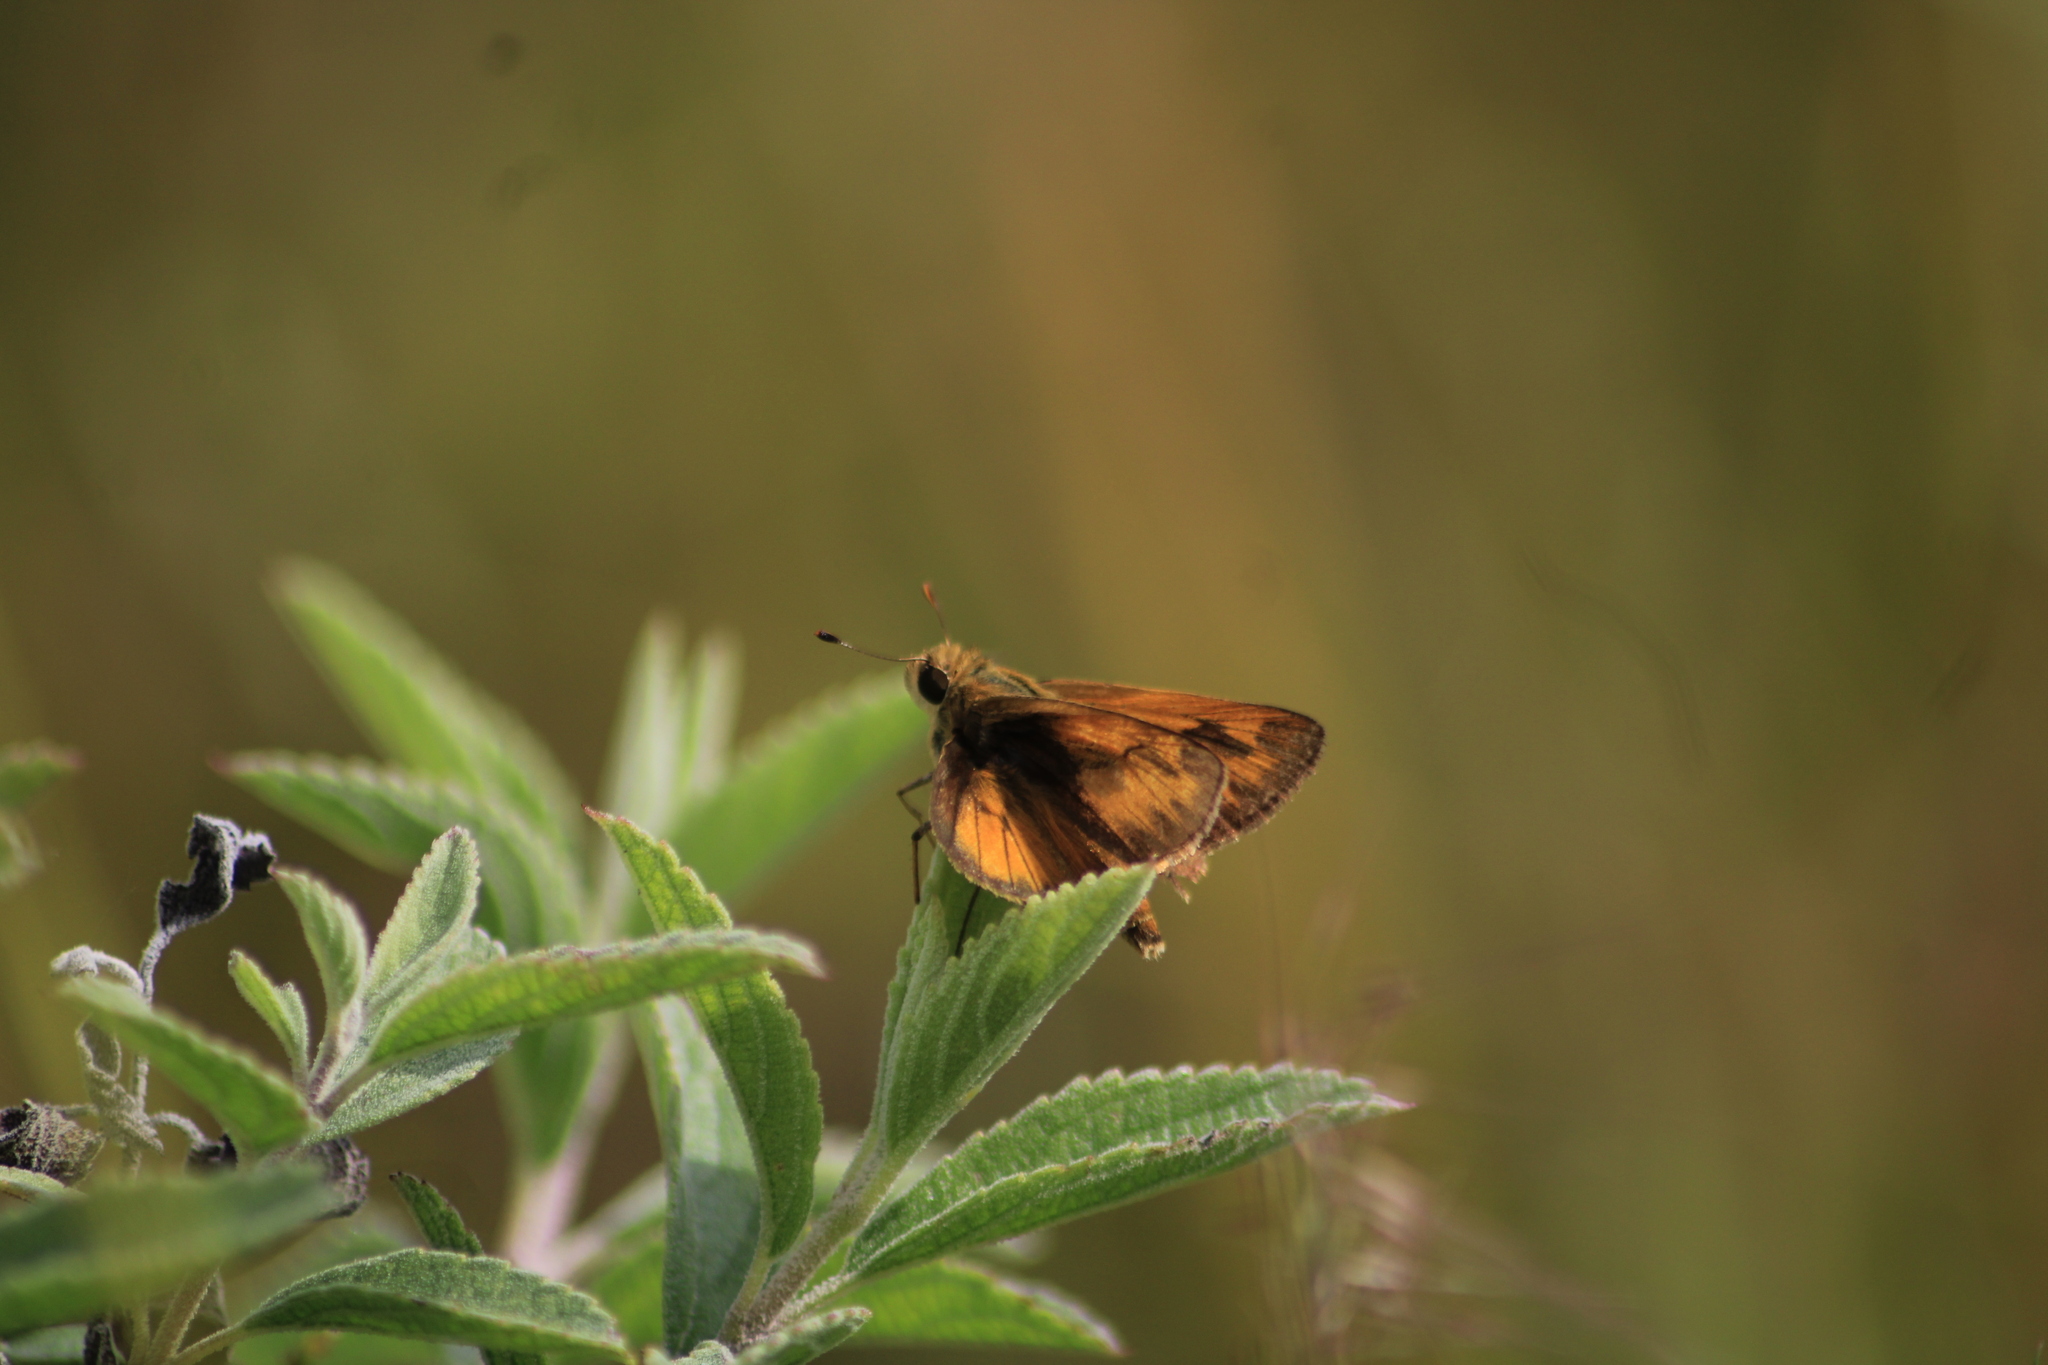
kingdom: Animalia
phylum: Arthropoda
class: Insecta
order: Lepidoptera
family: Hesperiidae
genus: Polites
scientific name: Polites vibex
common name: Whirlabout
